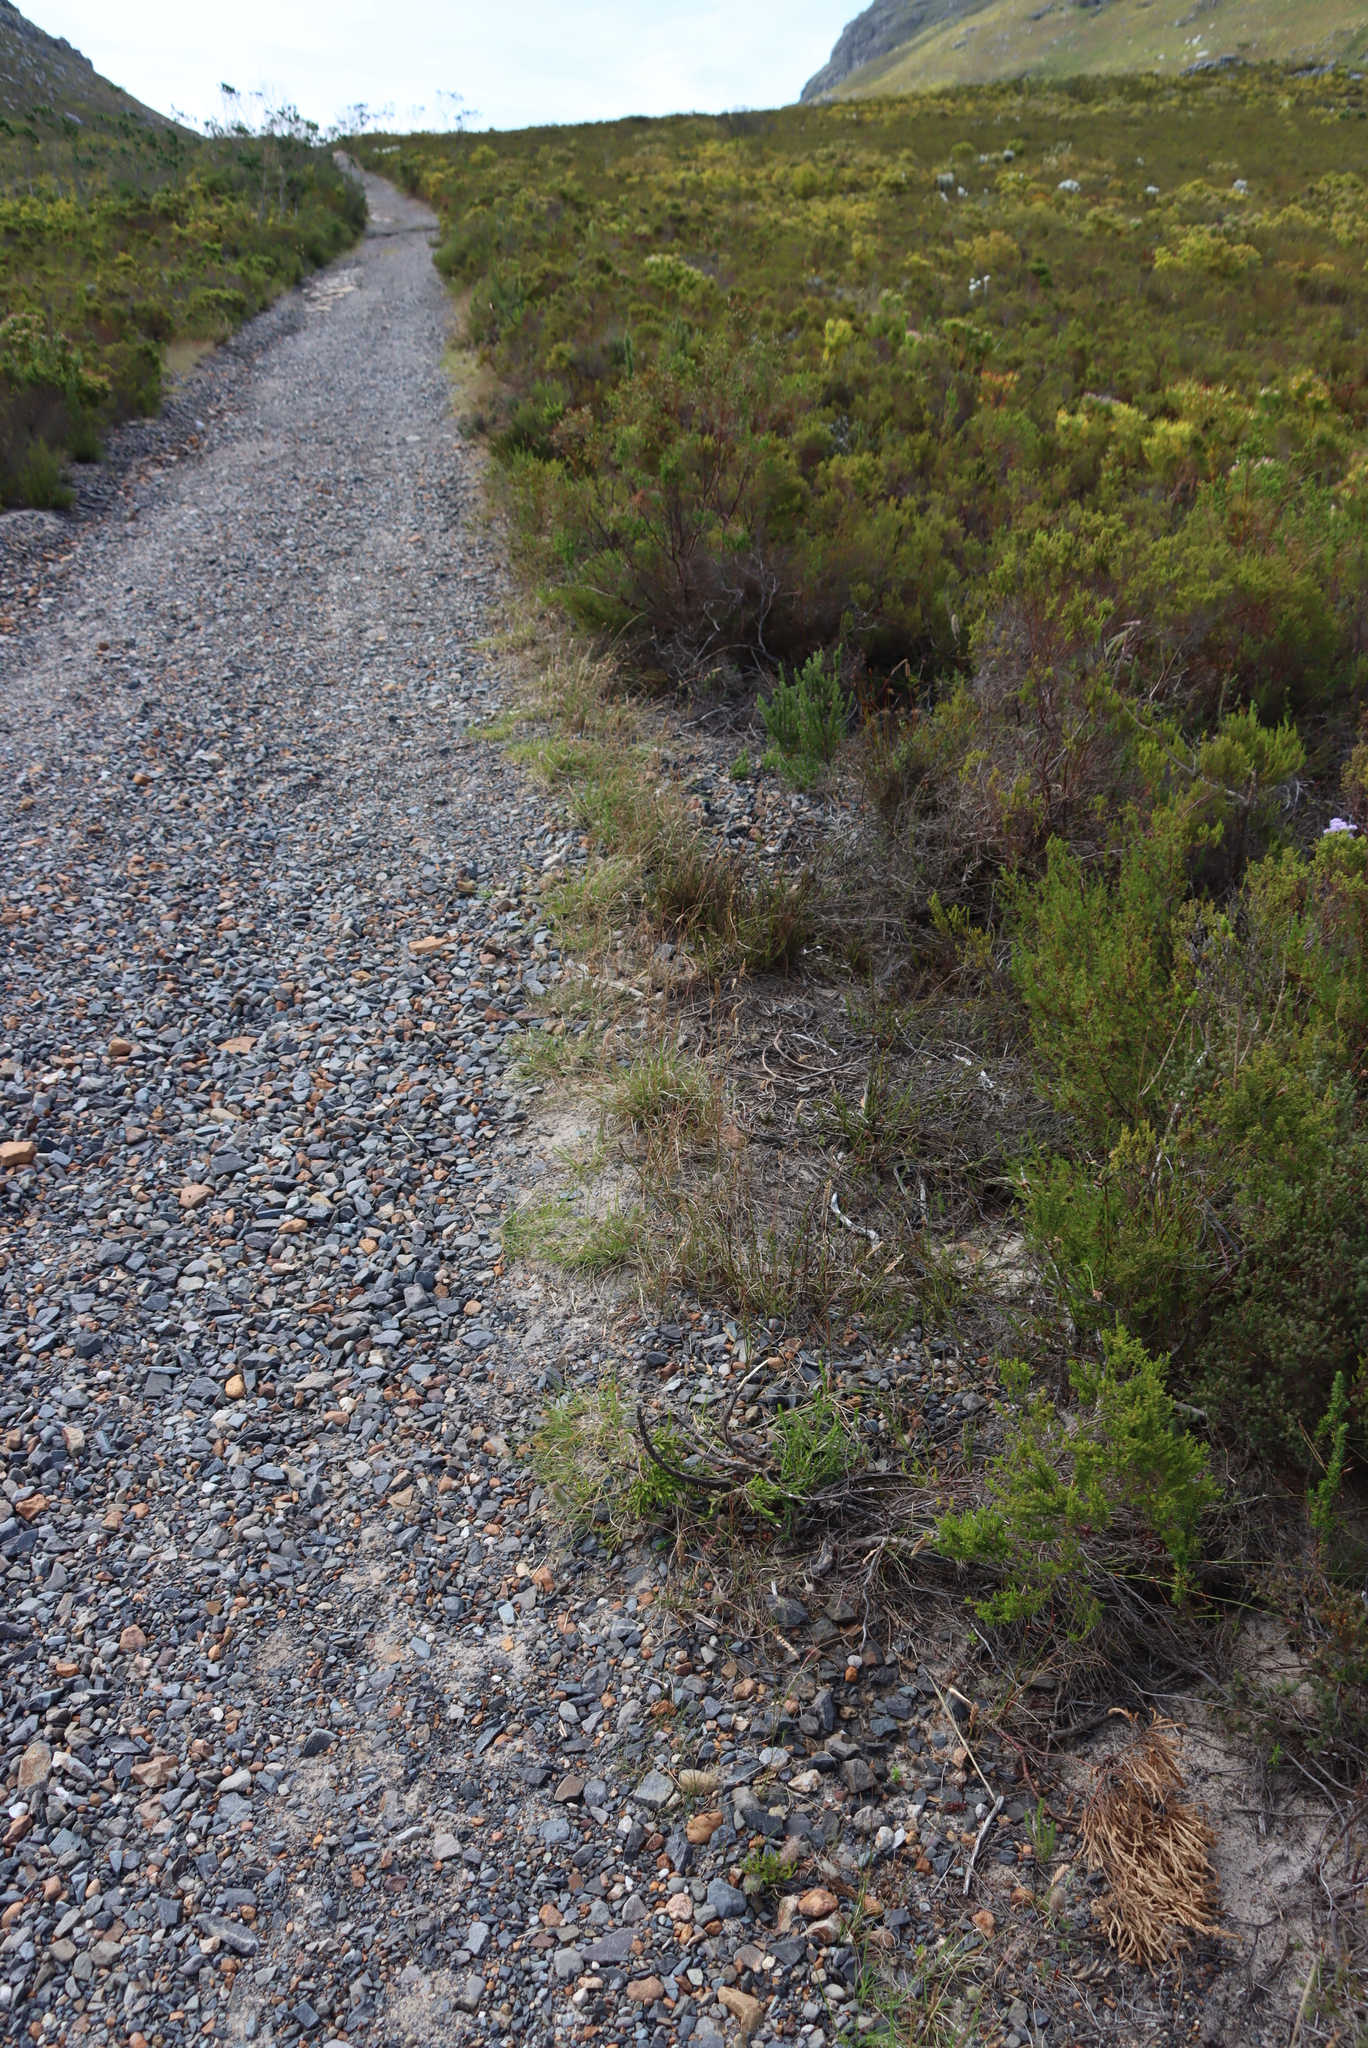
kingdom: Plantae
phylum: Tracheophyta
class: Liliopsida
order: Poales
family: Poaceae
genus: Tribolium
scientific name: Tribolium uniolae
